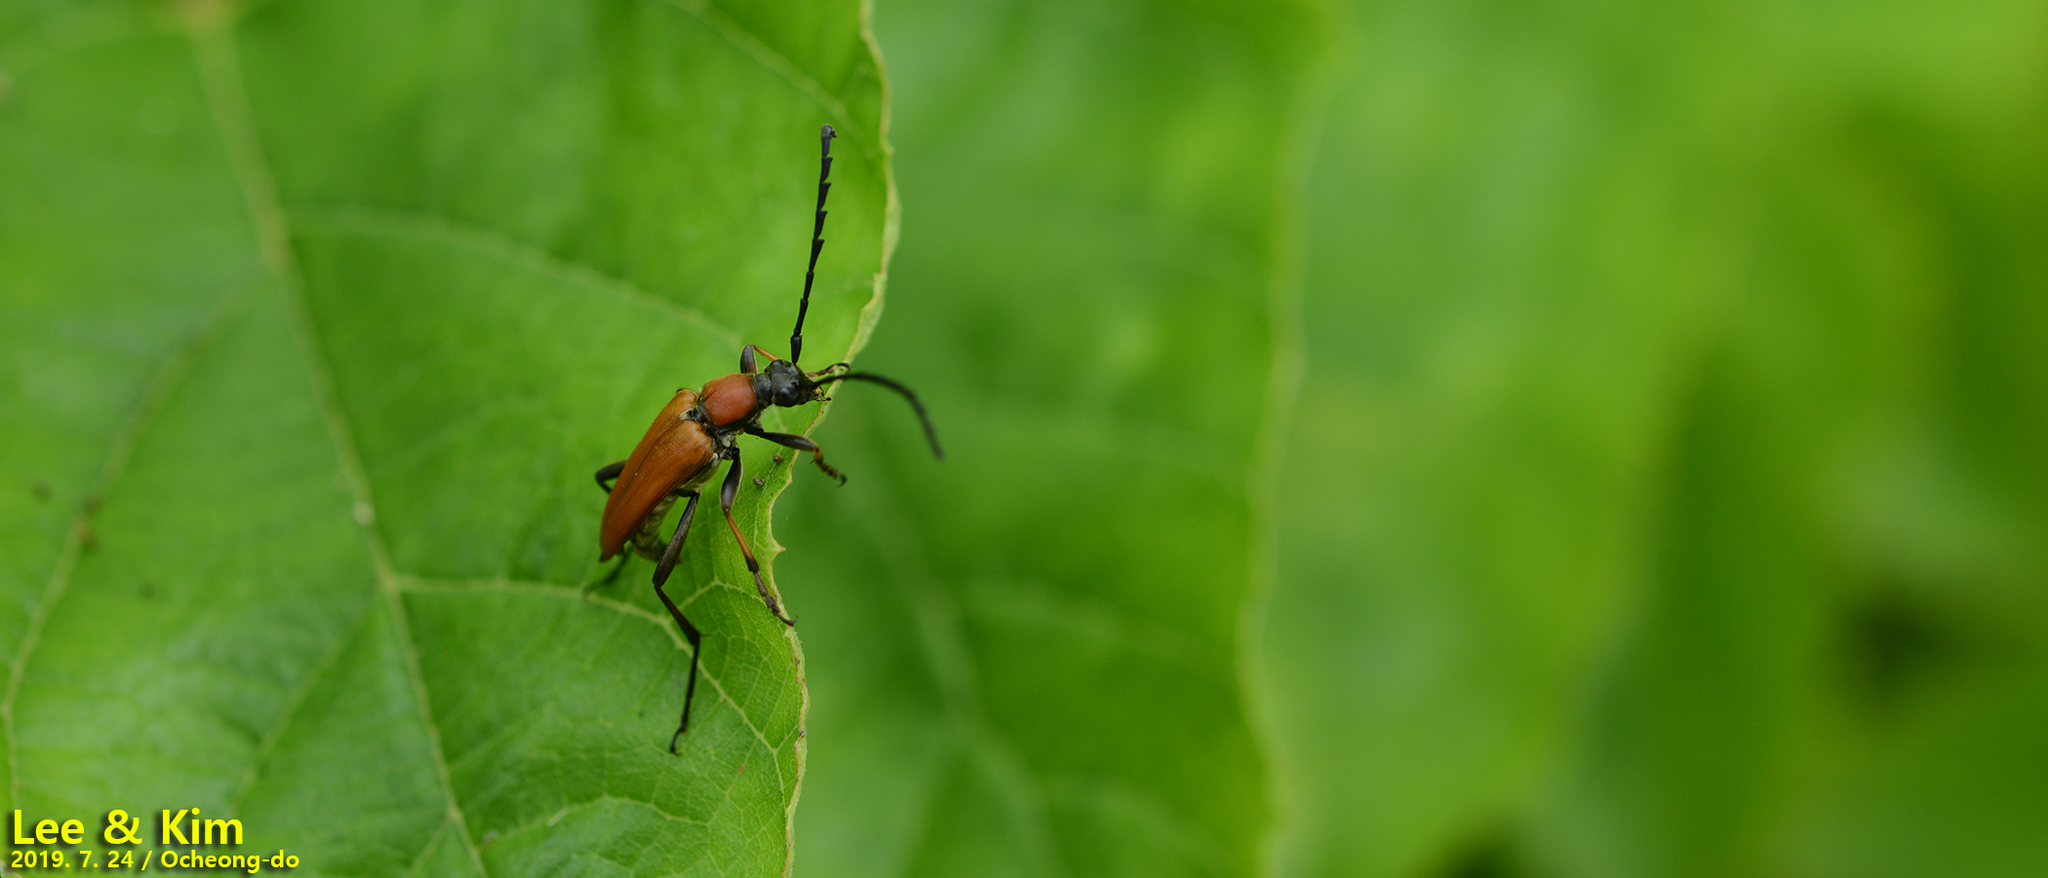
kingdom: Animalia
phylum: Arthropoda
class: Insecta
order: Coleoptera
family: Cerambycidae
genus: Stictoleptura
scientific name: Stictoleptura dichroa
